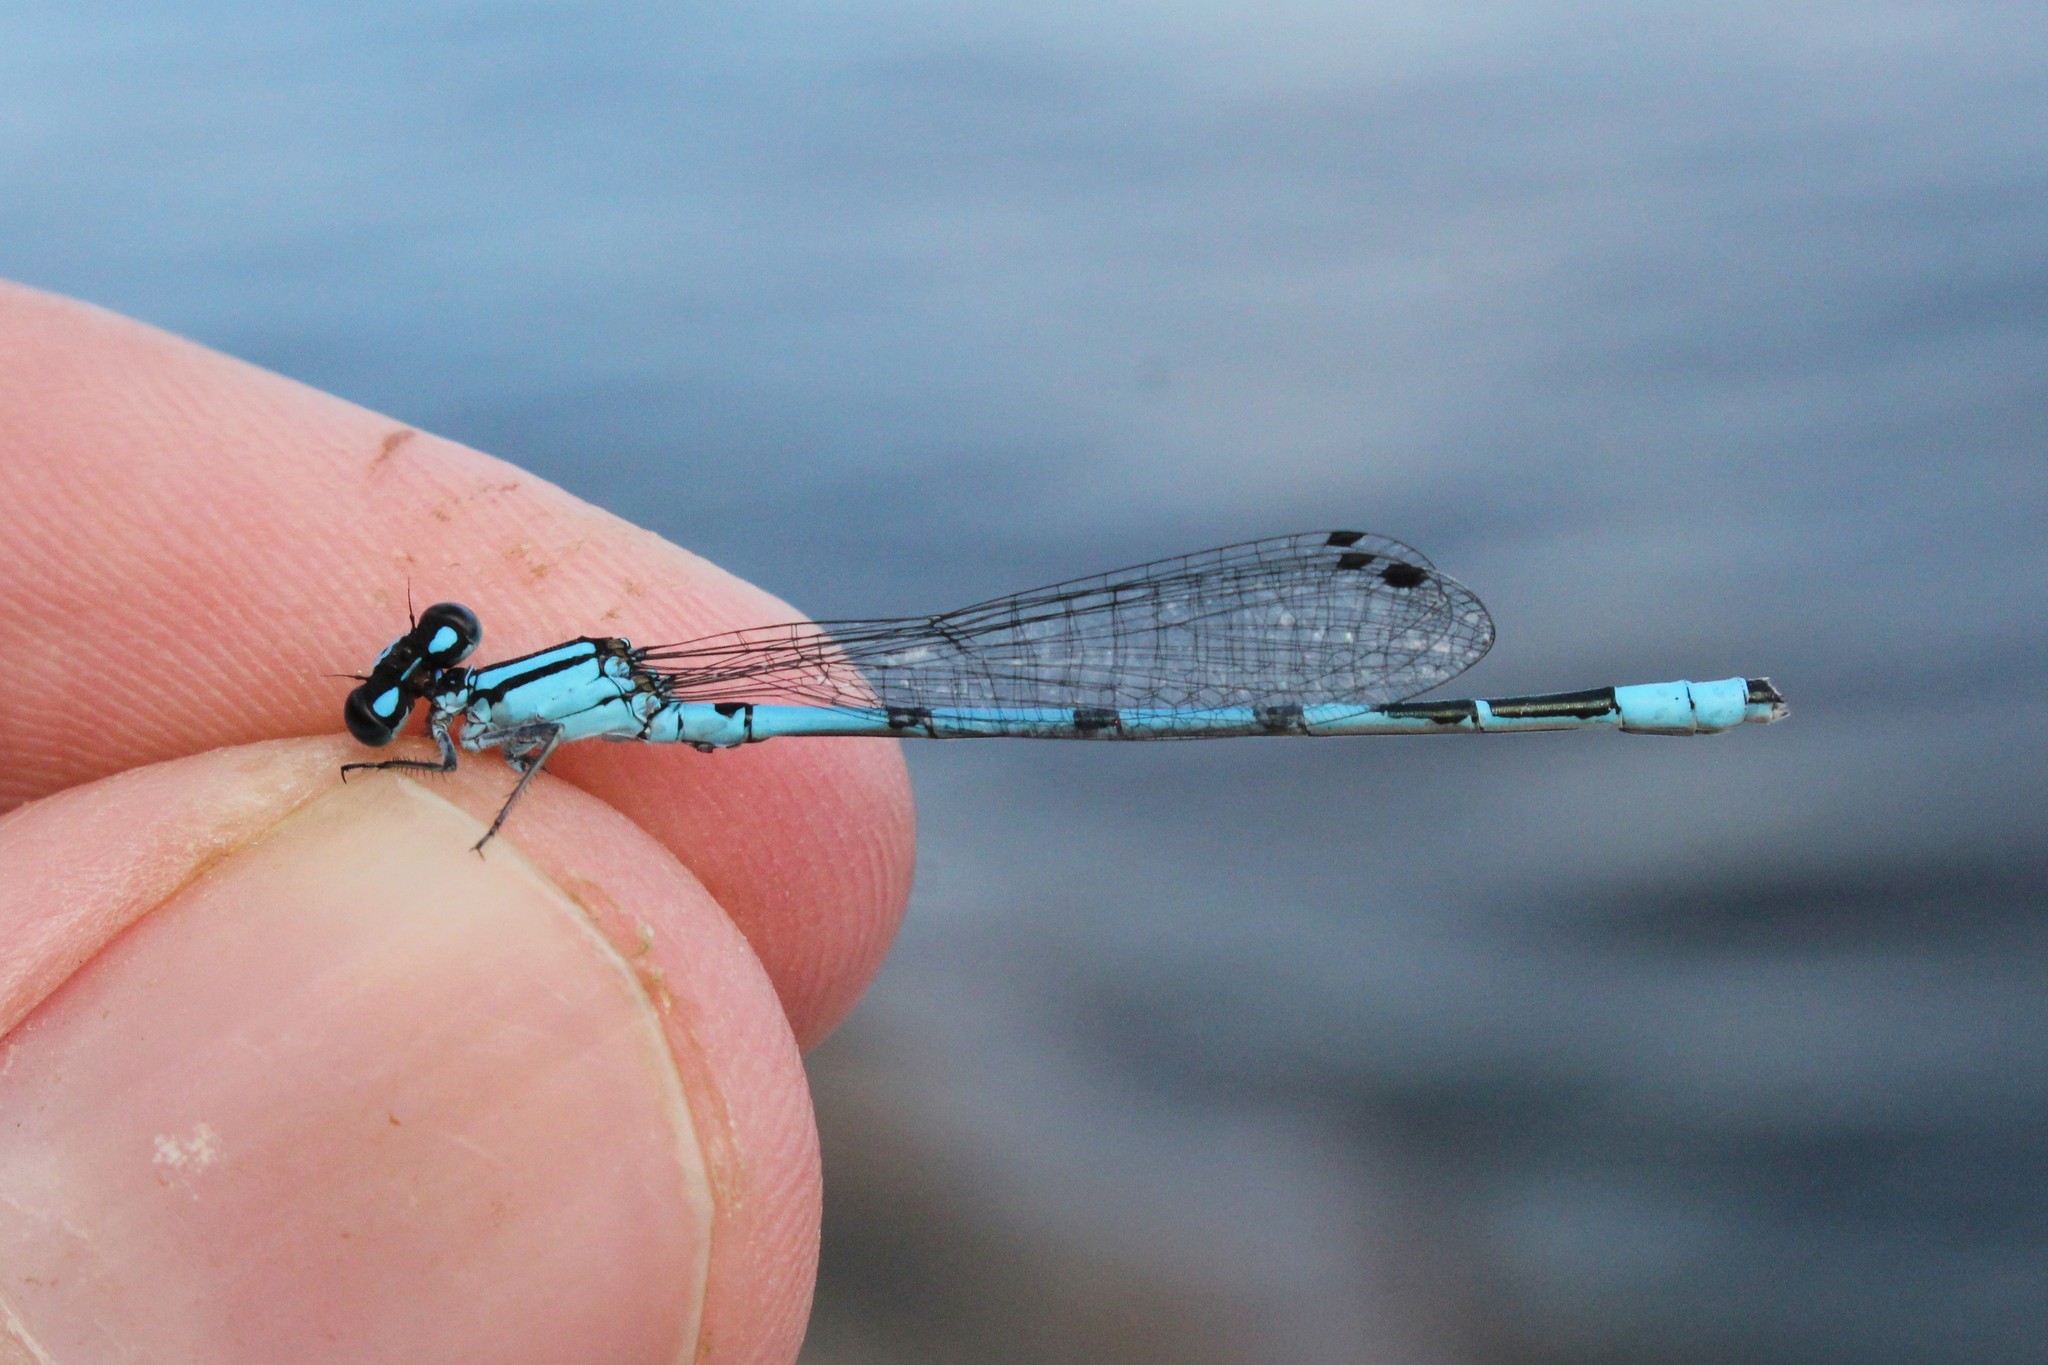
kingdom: Animalia
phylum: Arthropoda
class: Insecta
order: Odonata
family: Coenagrionidae
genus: Enallagma
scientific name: Enallagma hageni
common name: Hagen's bluet
